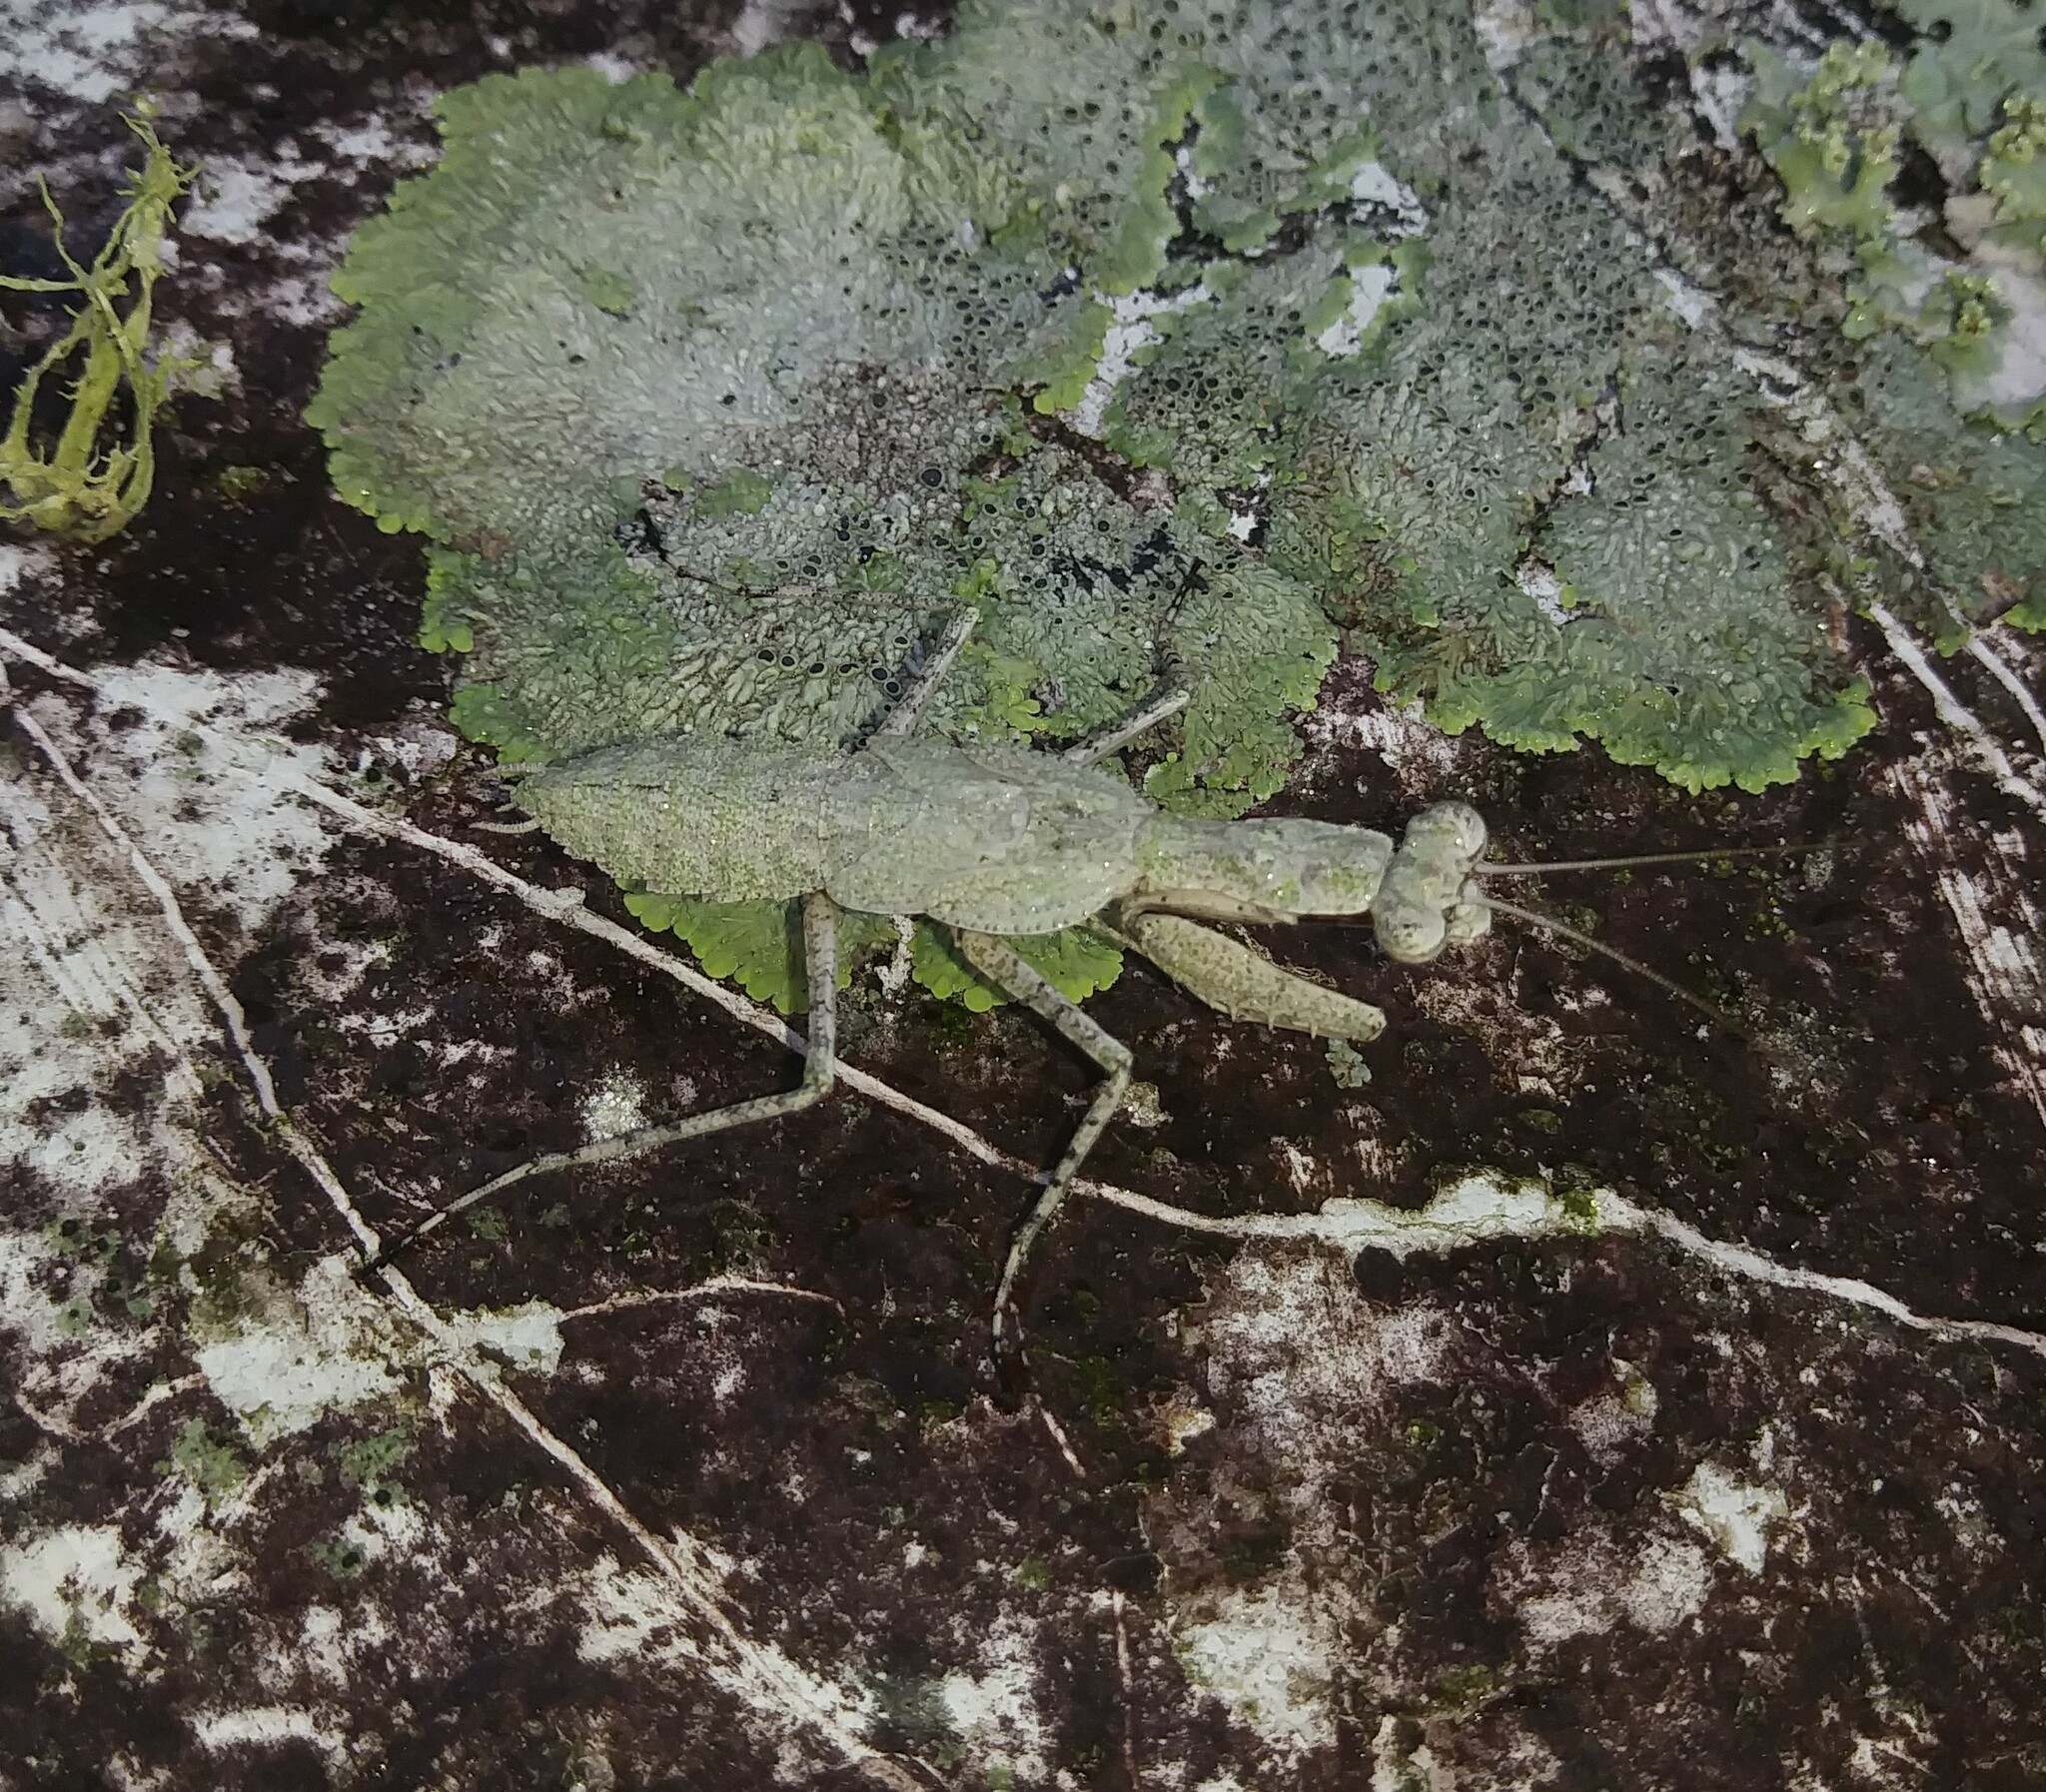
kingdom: Animalia
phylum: Arthropoda
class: Insecta
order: Mantodea
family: Epaphroditidae
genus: Gonatista
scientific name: Gonatista grisea
